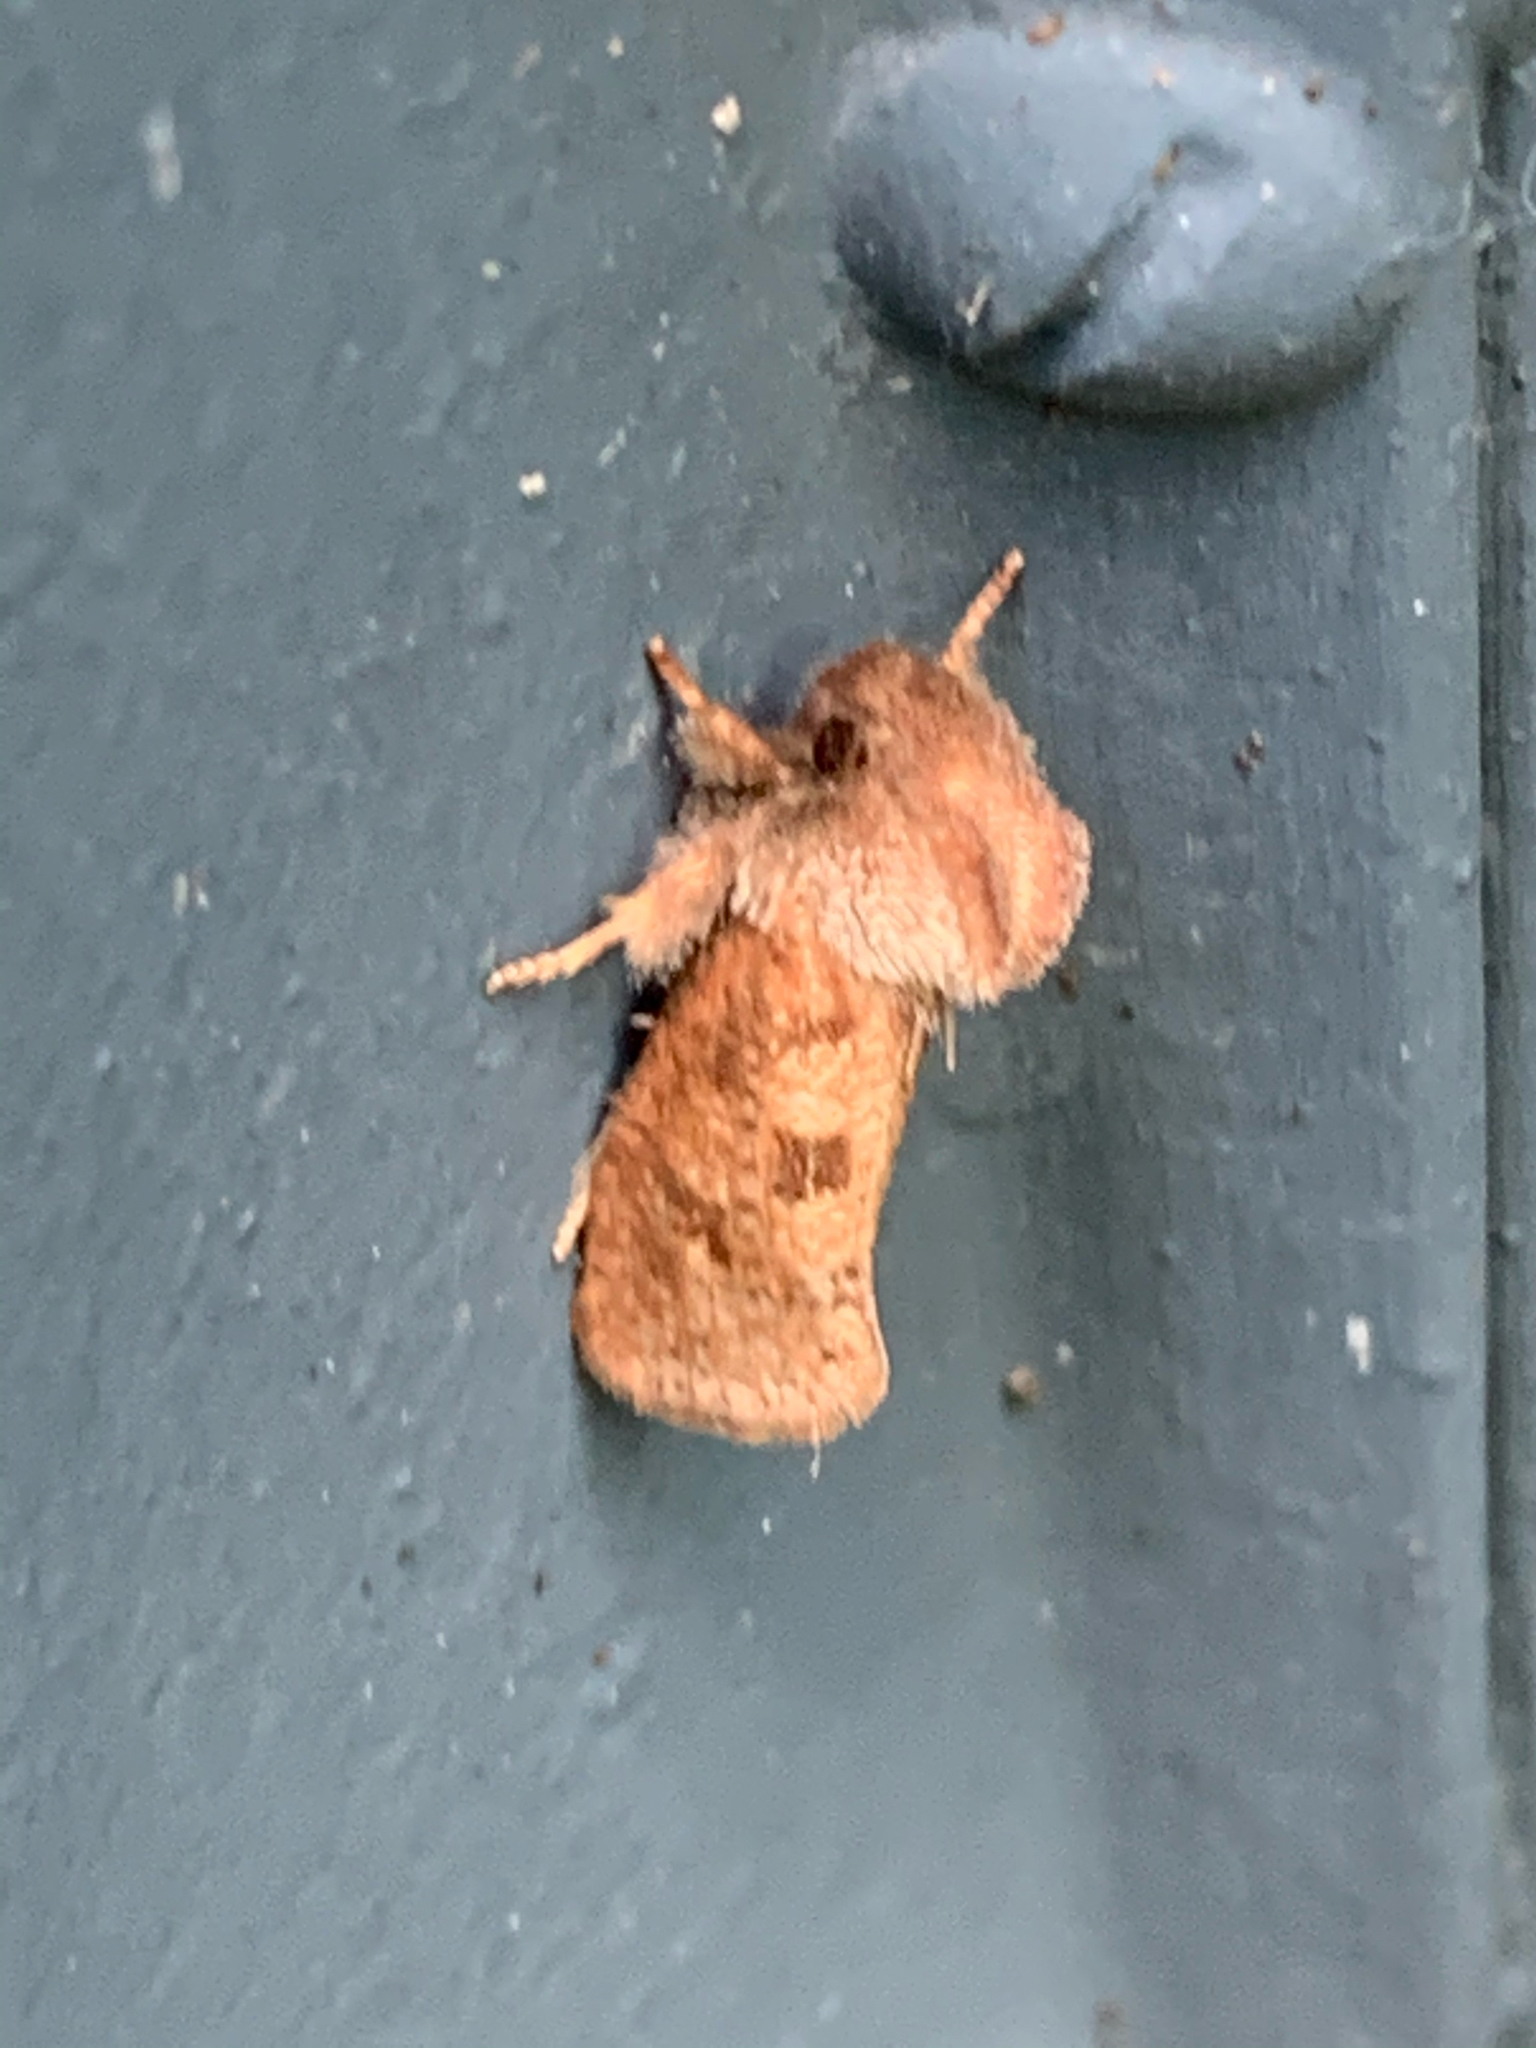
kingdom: Animalia
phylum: Arthropoda
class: Insecta
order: Lepidoptera
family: Tineidae
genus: Acrolophus
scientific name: Acrolophus plumifrontella
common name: Eastern grass tubeworm moth
